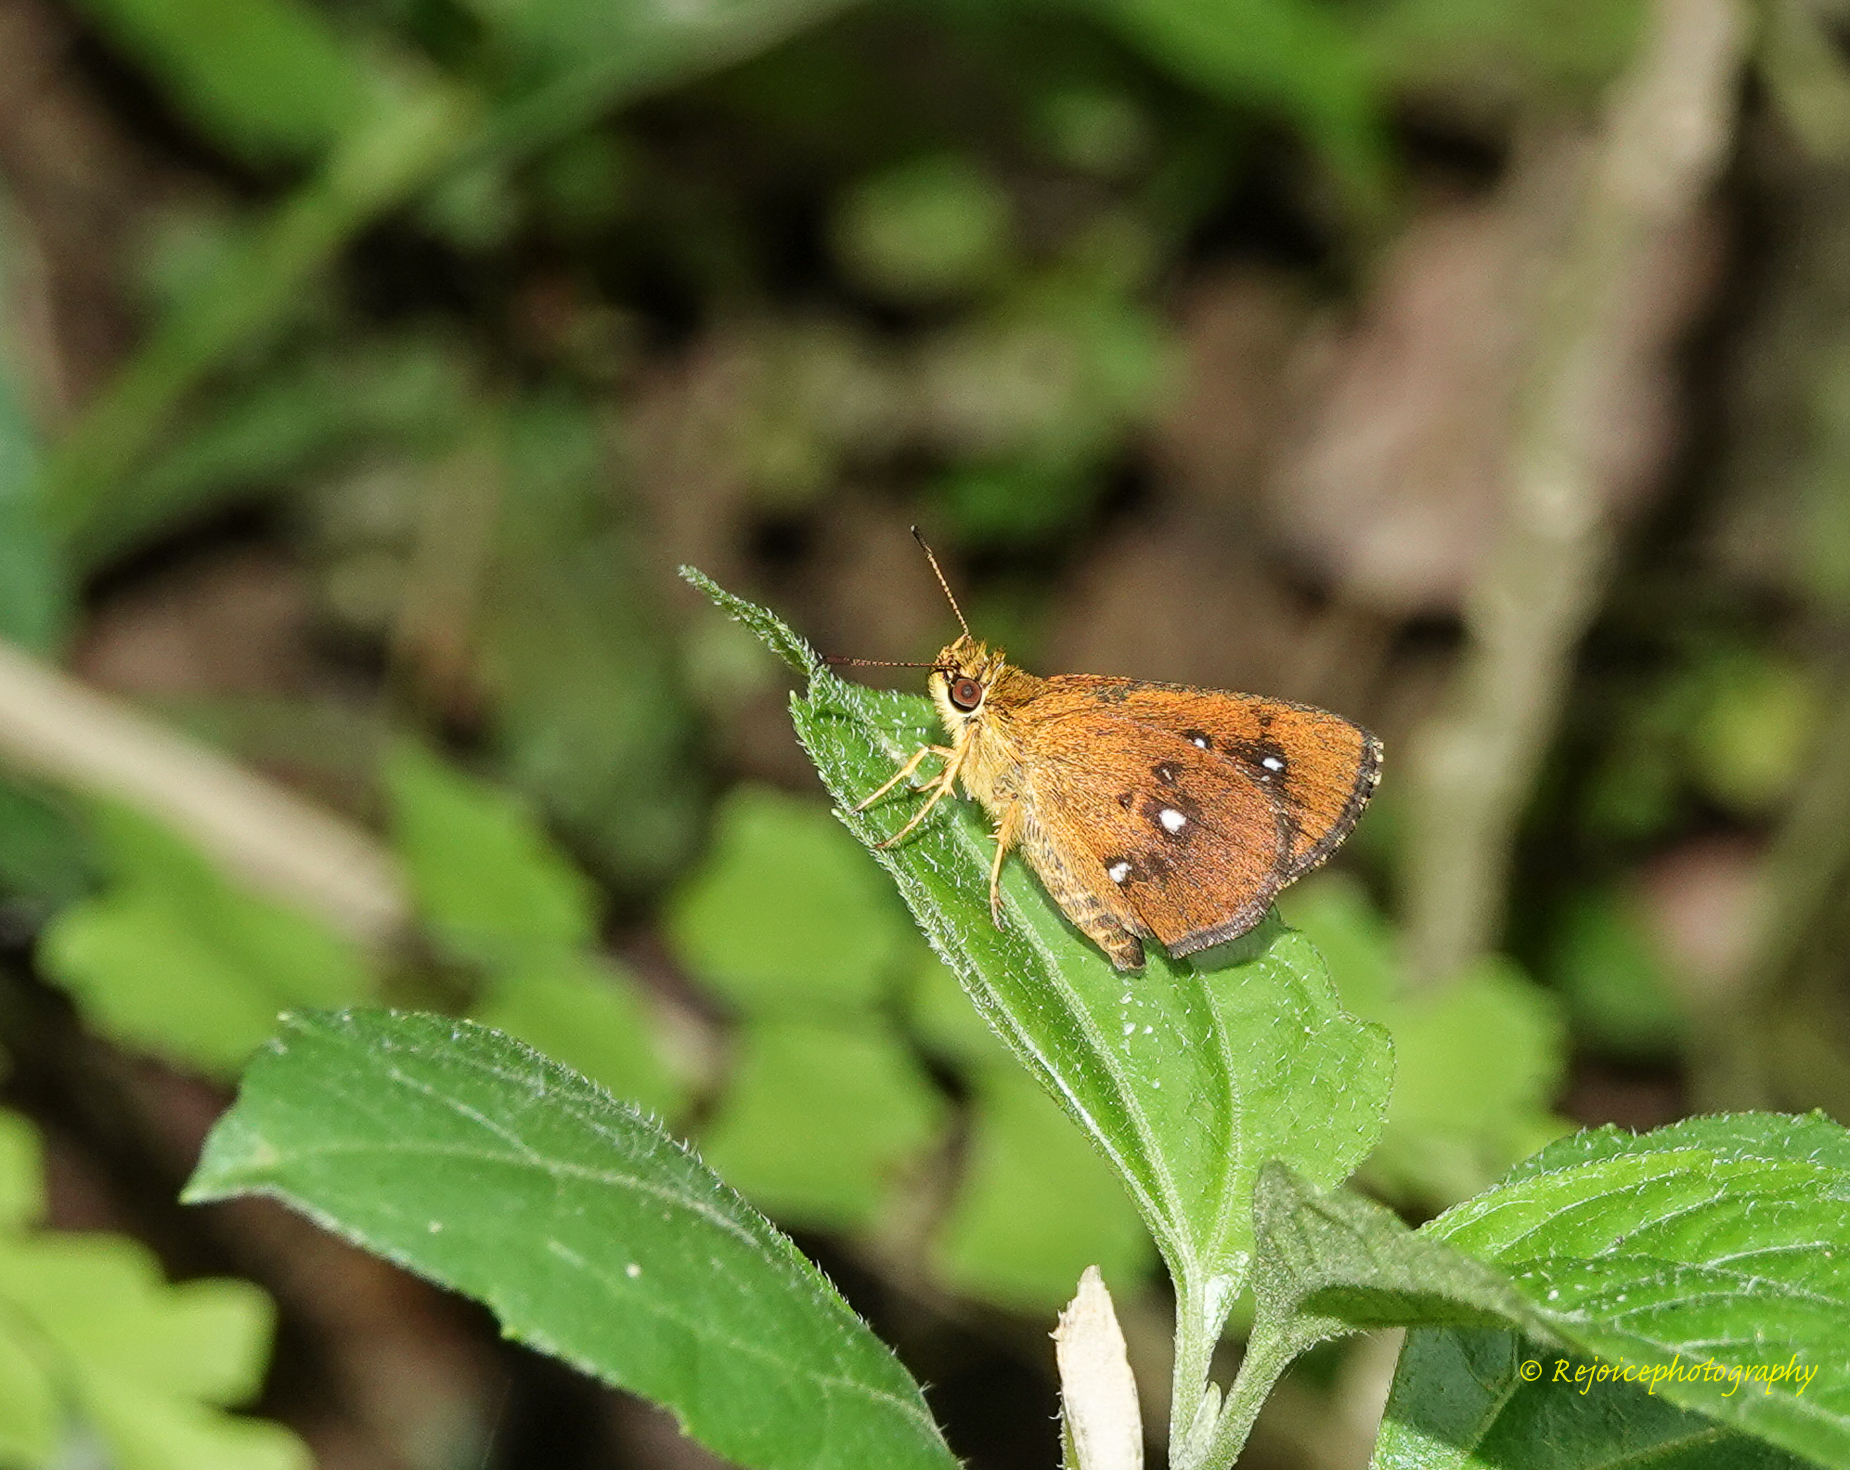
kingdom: Animalia
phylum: Arthropoda
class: Insecta
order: Lepidoptera
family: Hesperiidae
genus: Iambrix
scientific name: Iambrix salsala
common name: Chestnut bob
